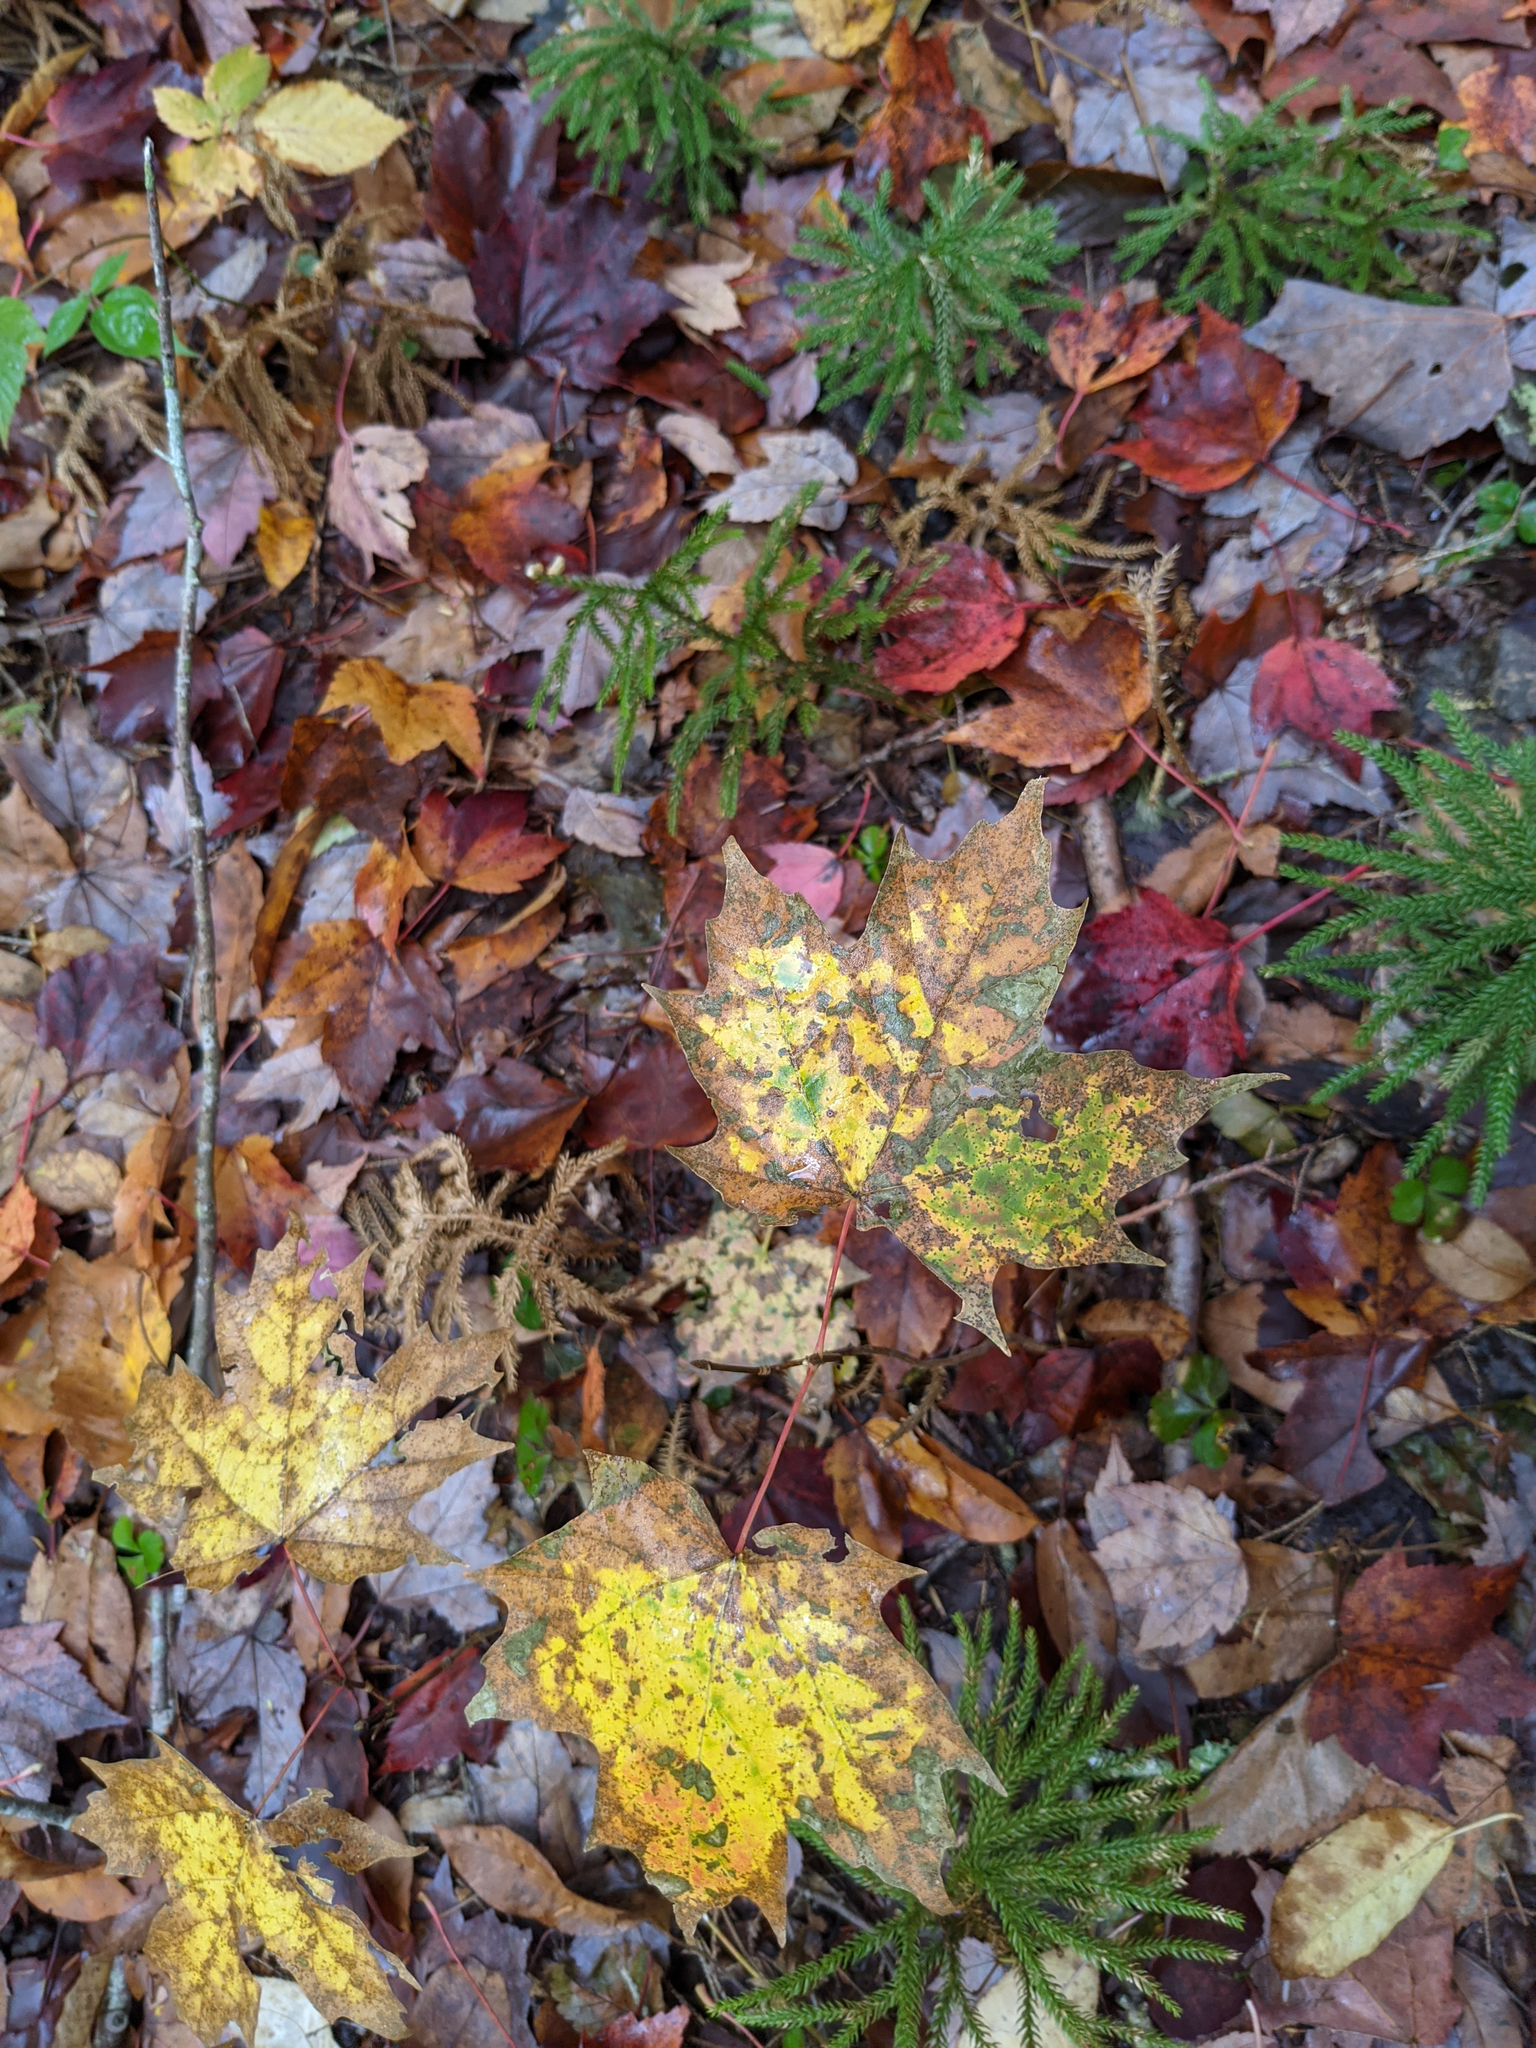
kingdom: Plantae
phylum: Tracheophyta
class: Magnoliopsida
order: Sapindales
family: Sapindaceae
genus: Acer
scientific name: Acer saccharum
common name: Sugar maple
